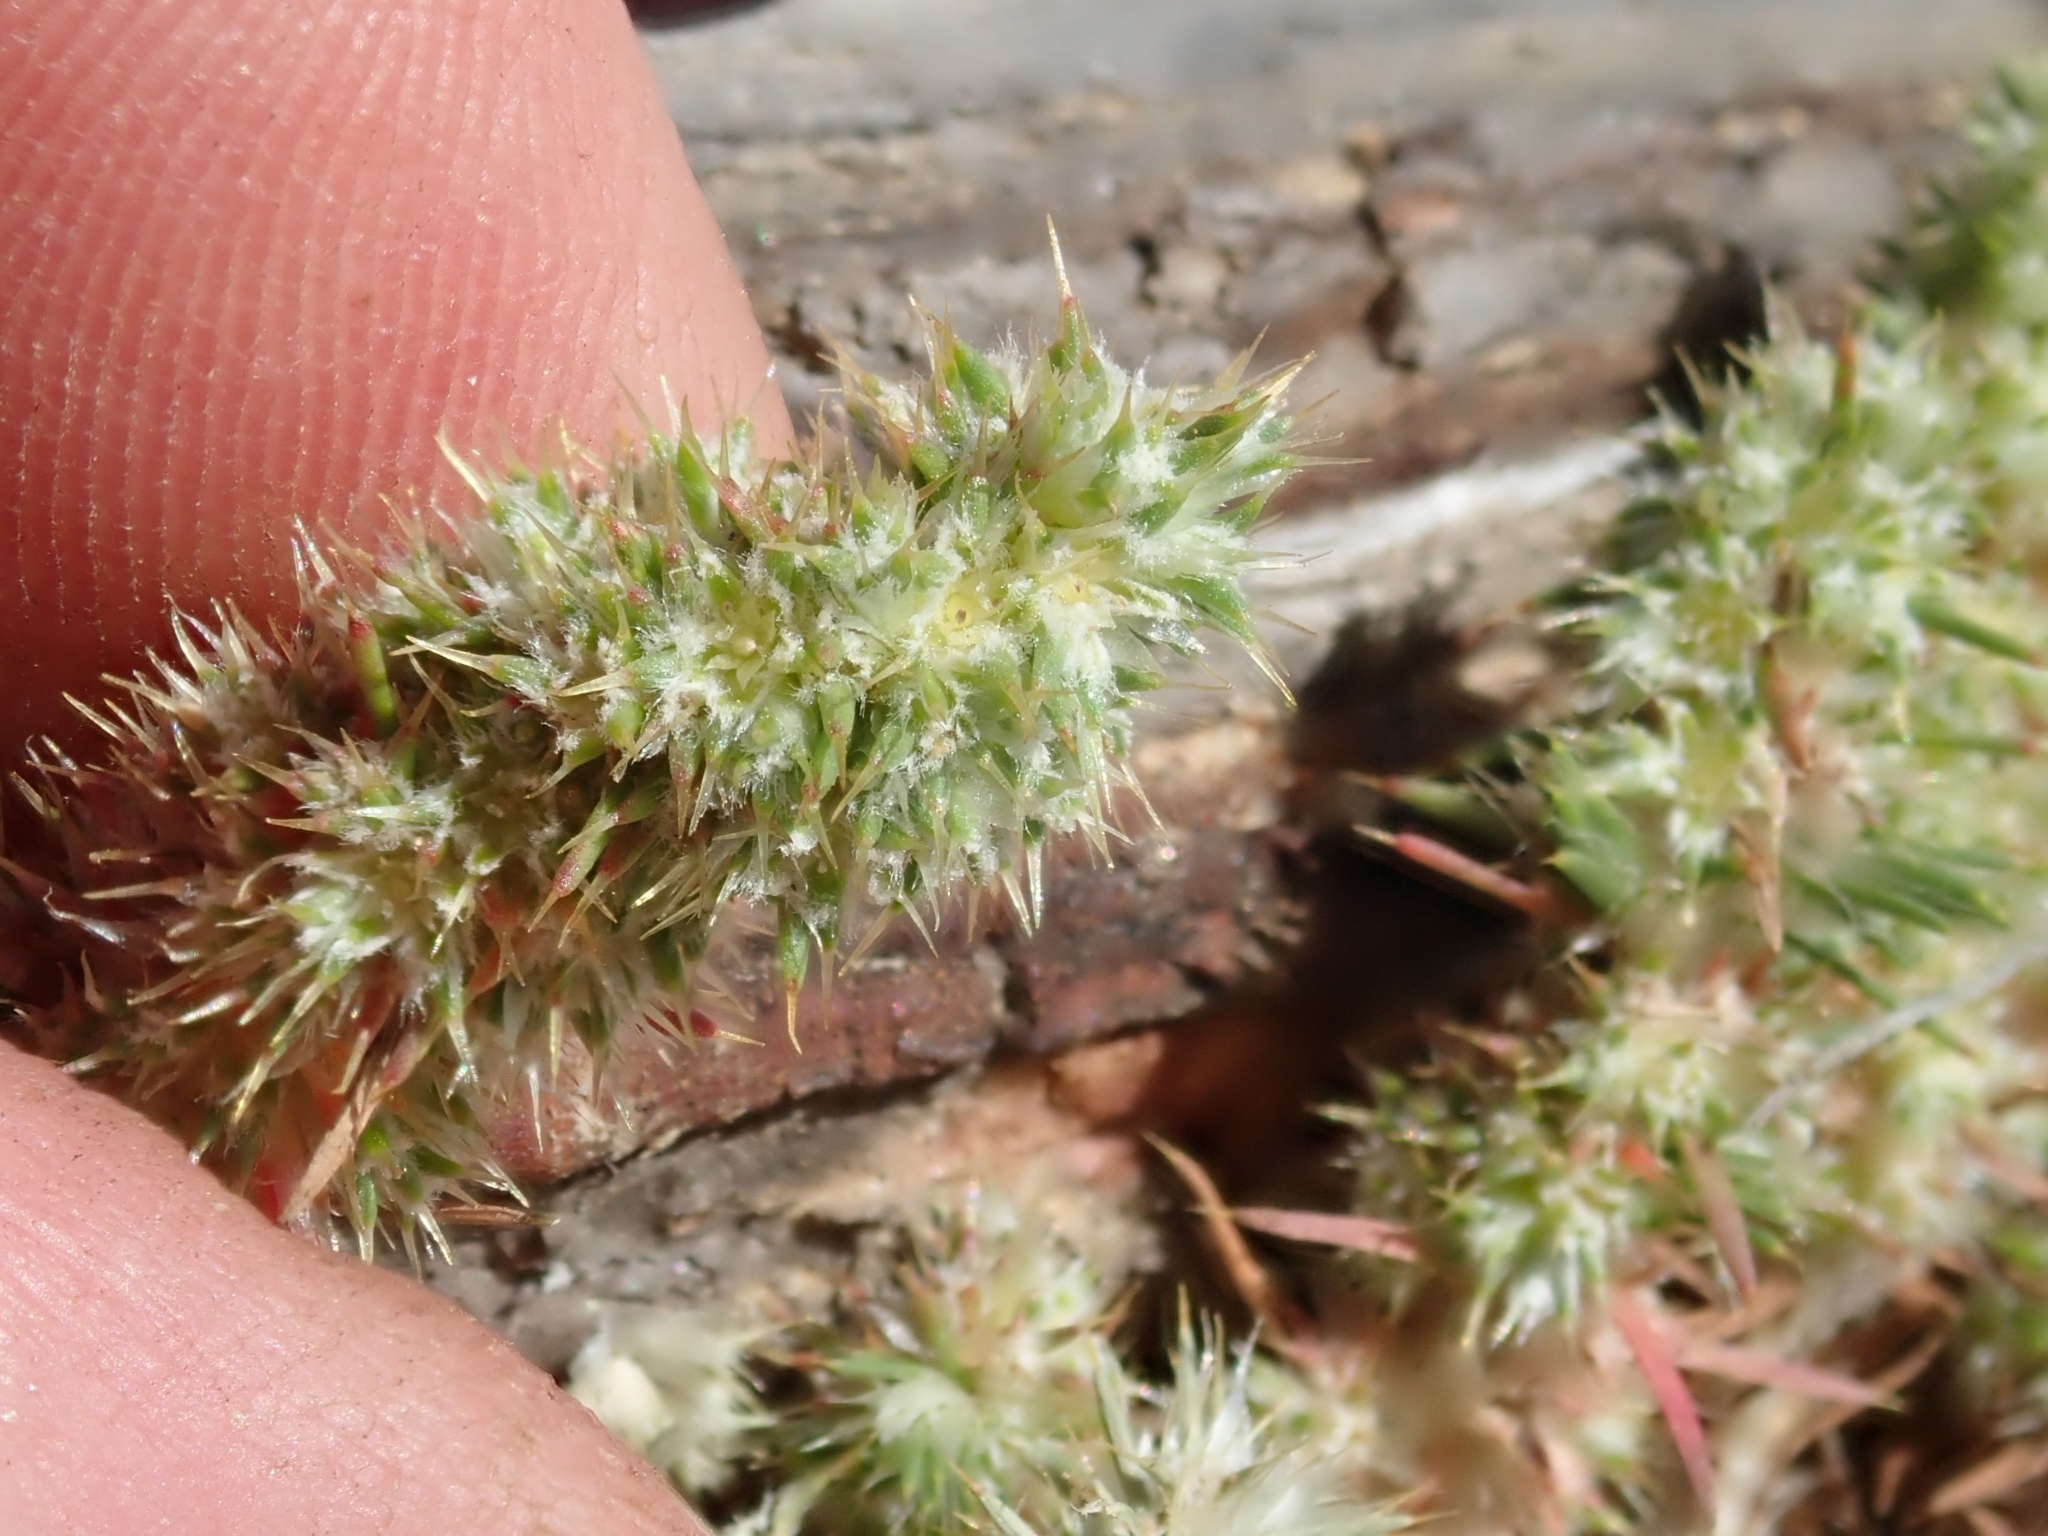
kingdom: Plantae
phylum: Tracheophyta
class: Magnoliopsida
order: Caryophyllales
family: Caryophyllaceae
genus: Cardionema
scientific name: Cardionema ramosissima
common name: Sandcarpet
